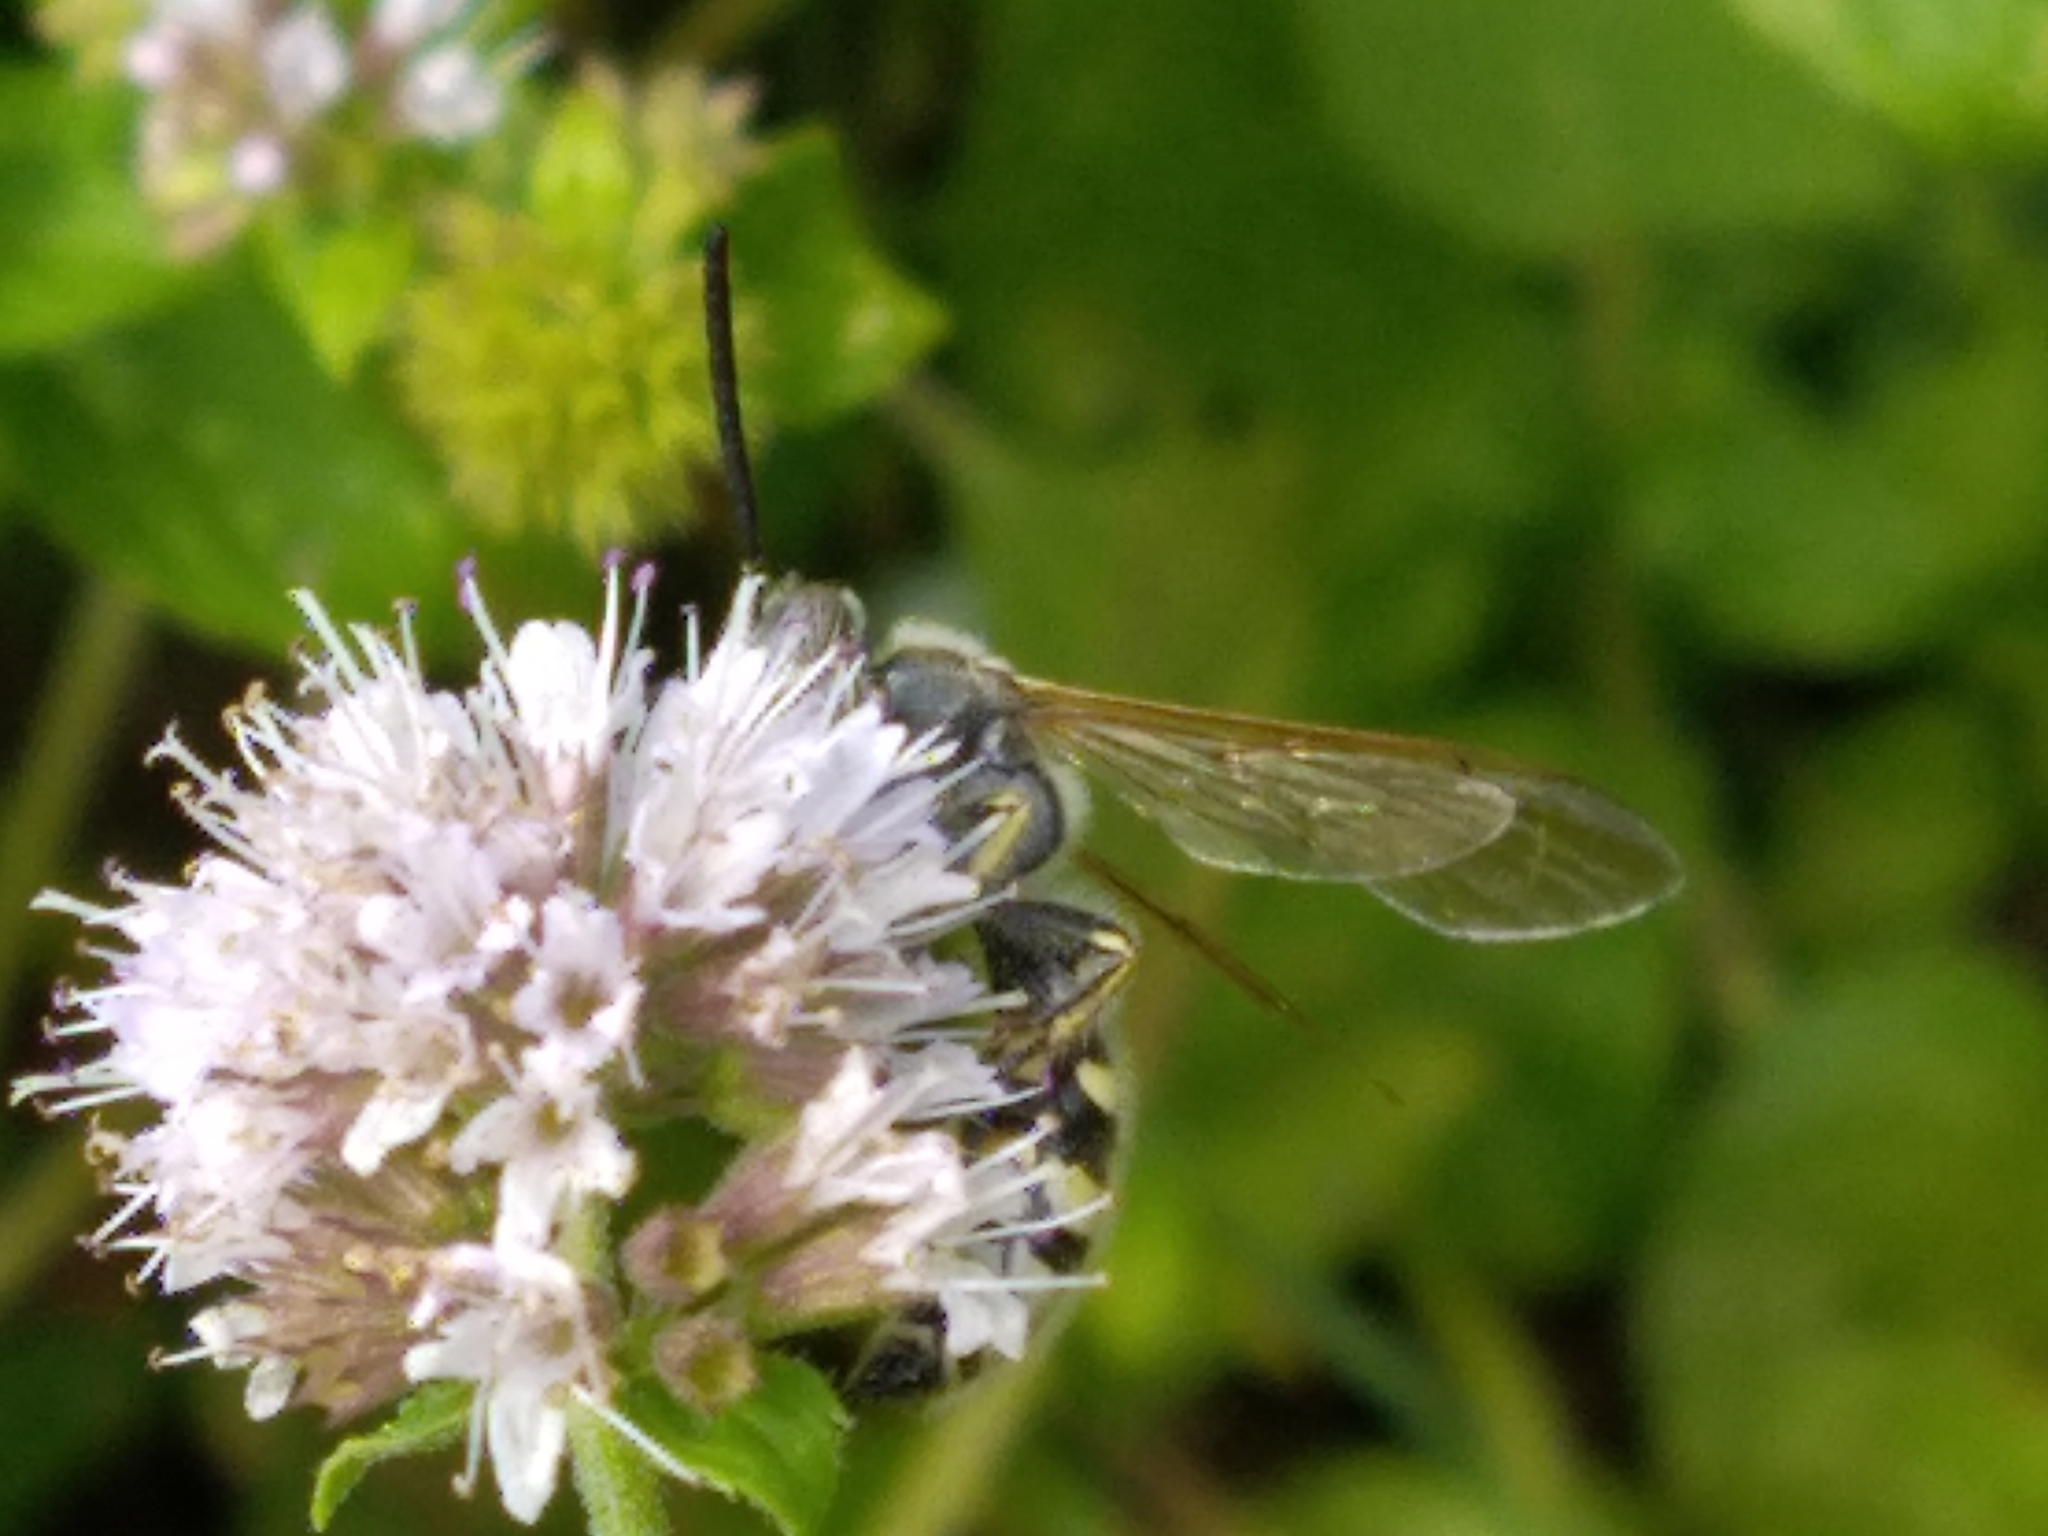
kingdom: Animalia
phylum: Arthropoda
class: Insecta
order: Hymenoptera
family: Vespidae
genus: Vespa
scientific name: Vespa sexmaculata
